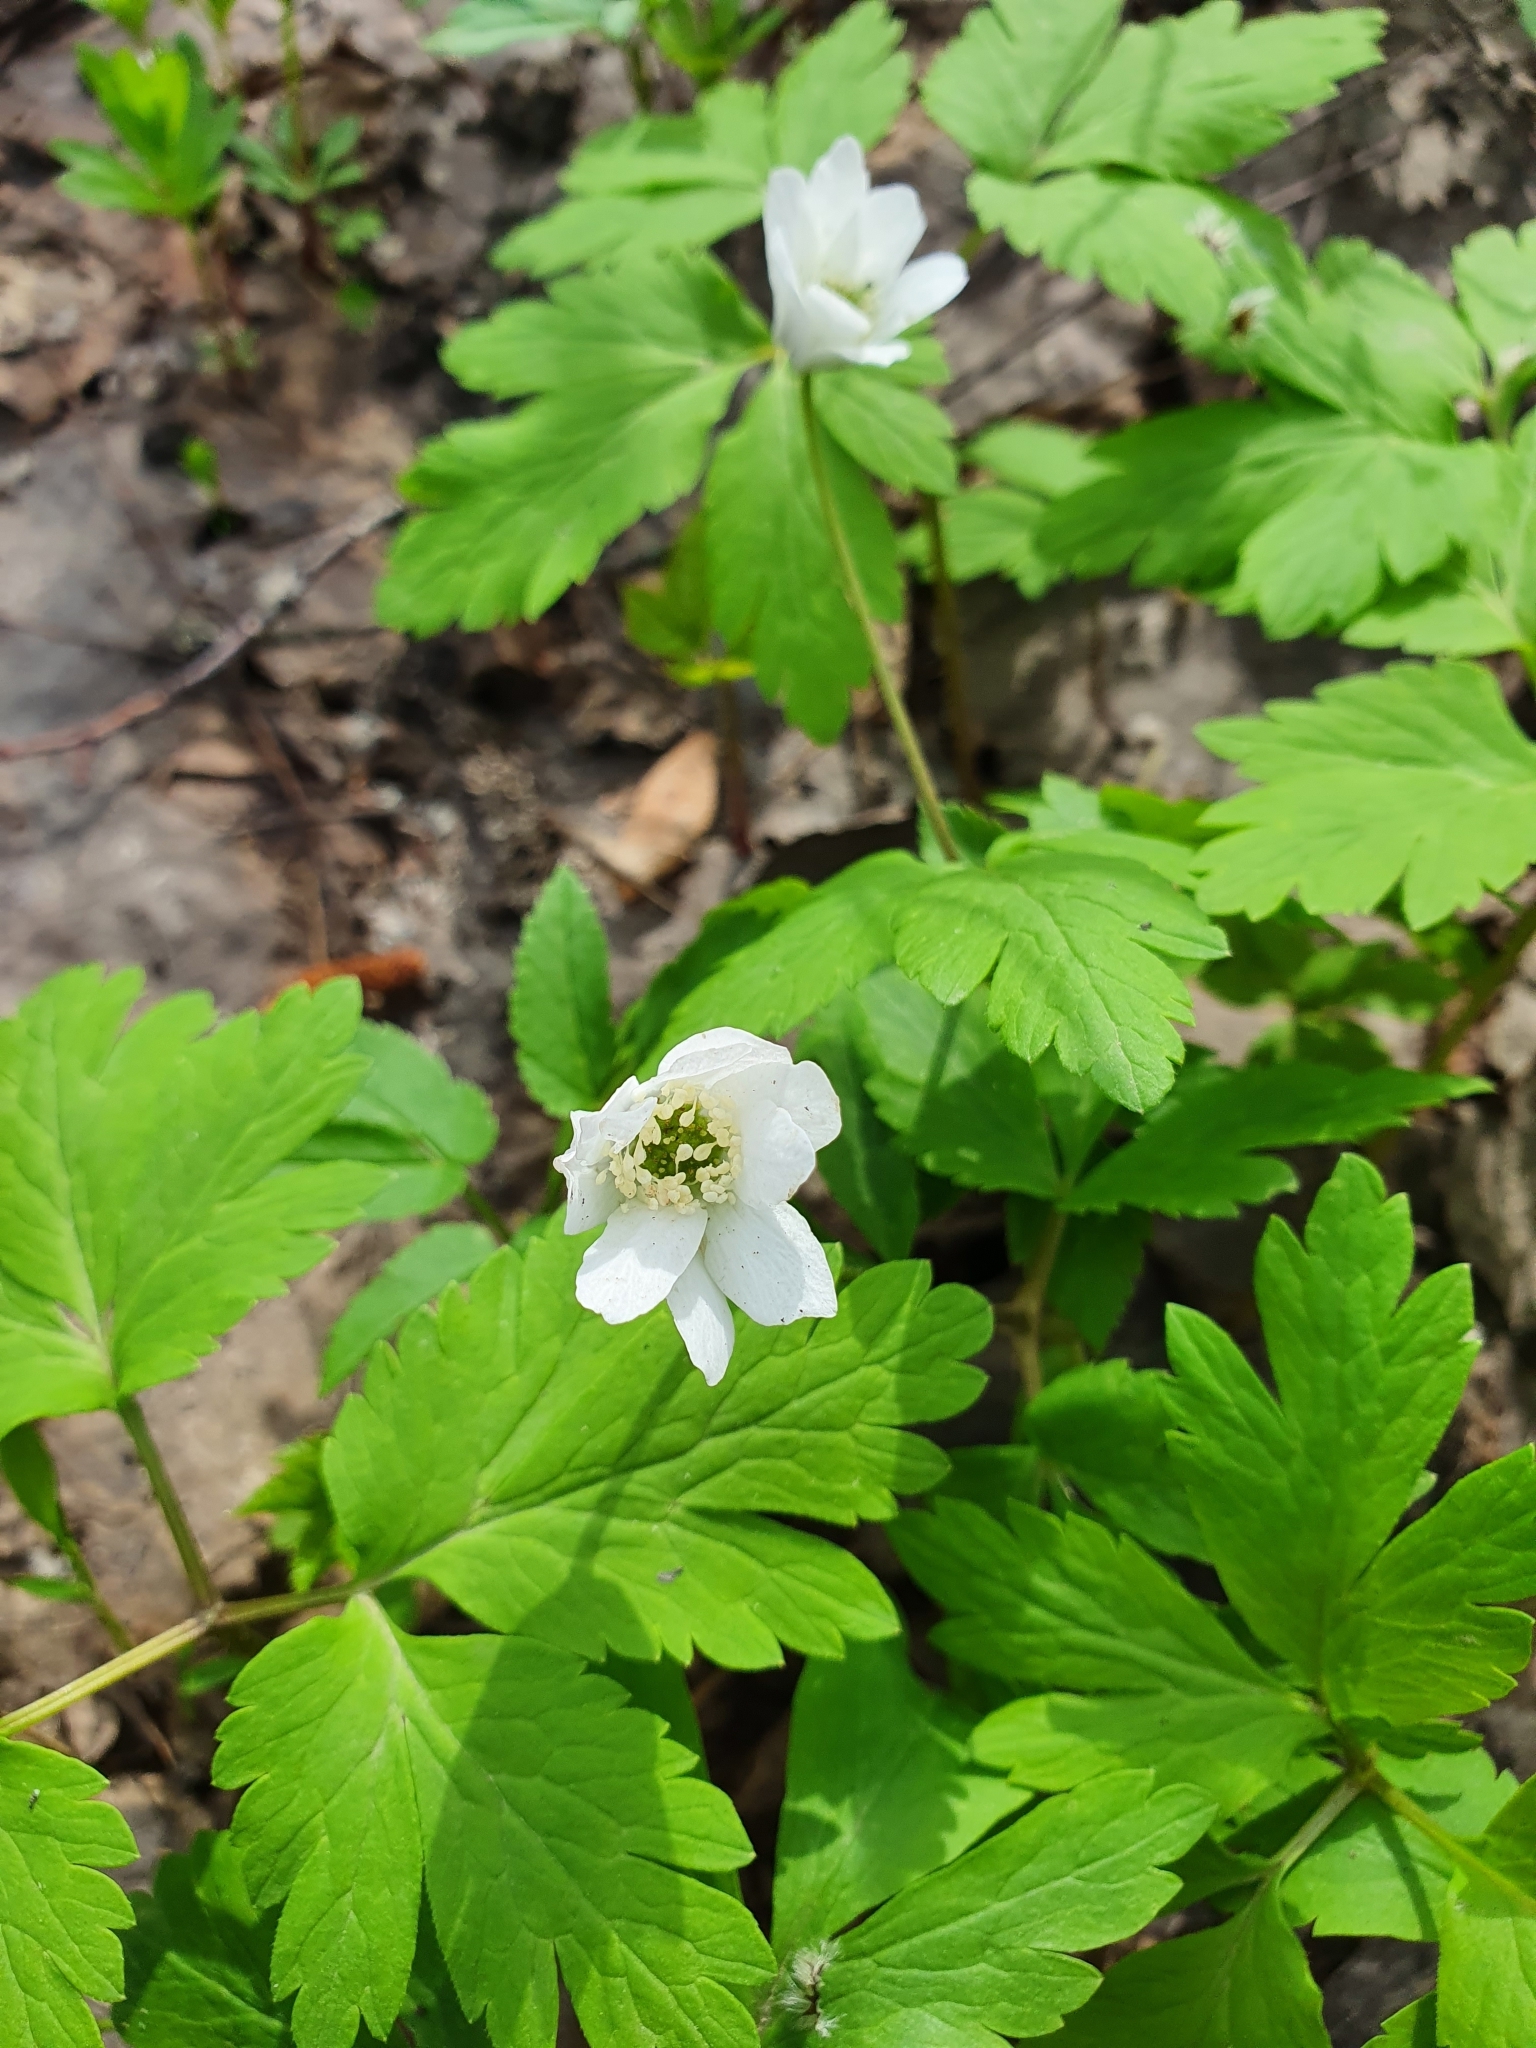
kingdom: Plantae
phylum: Tracheophyta
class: Magnoliopsida
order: Ranunculales
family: Ranunculaceae
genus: Anemone
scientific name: Anemone altaica
